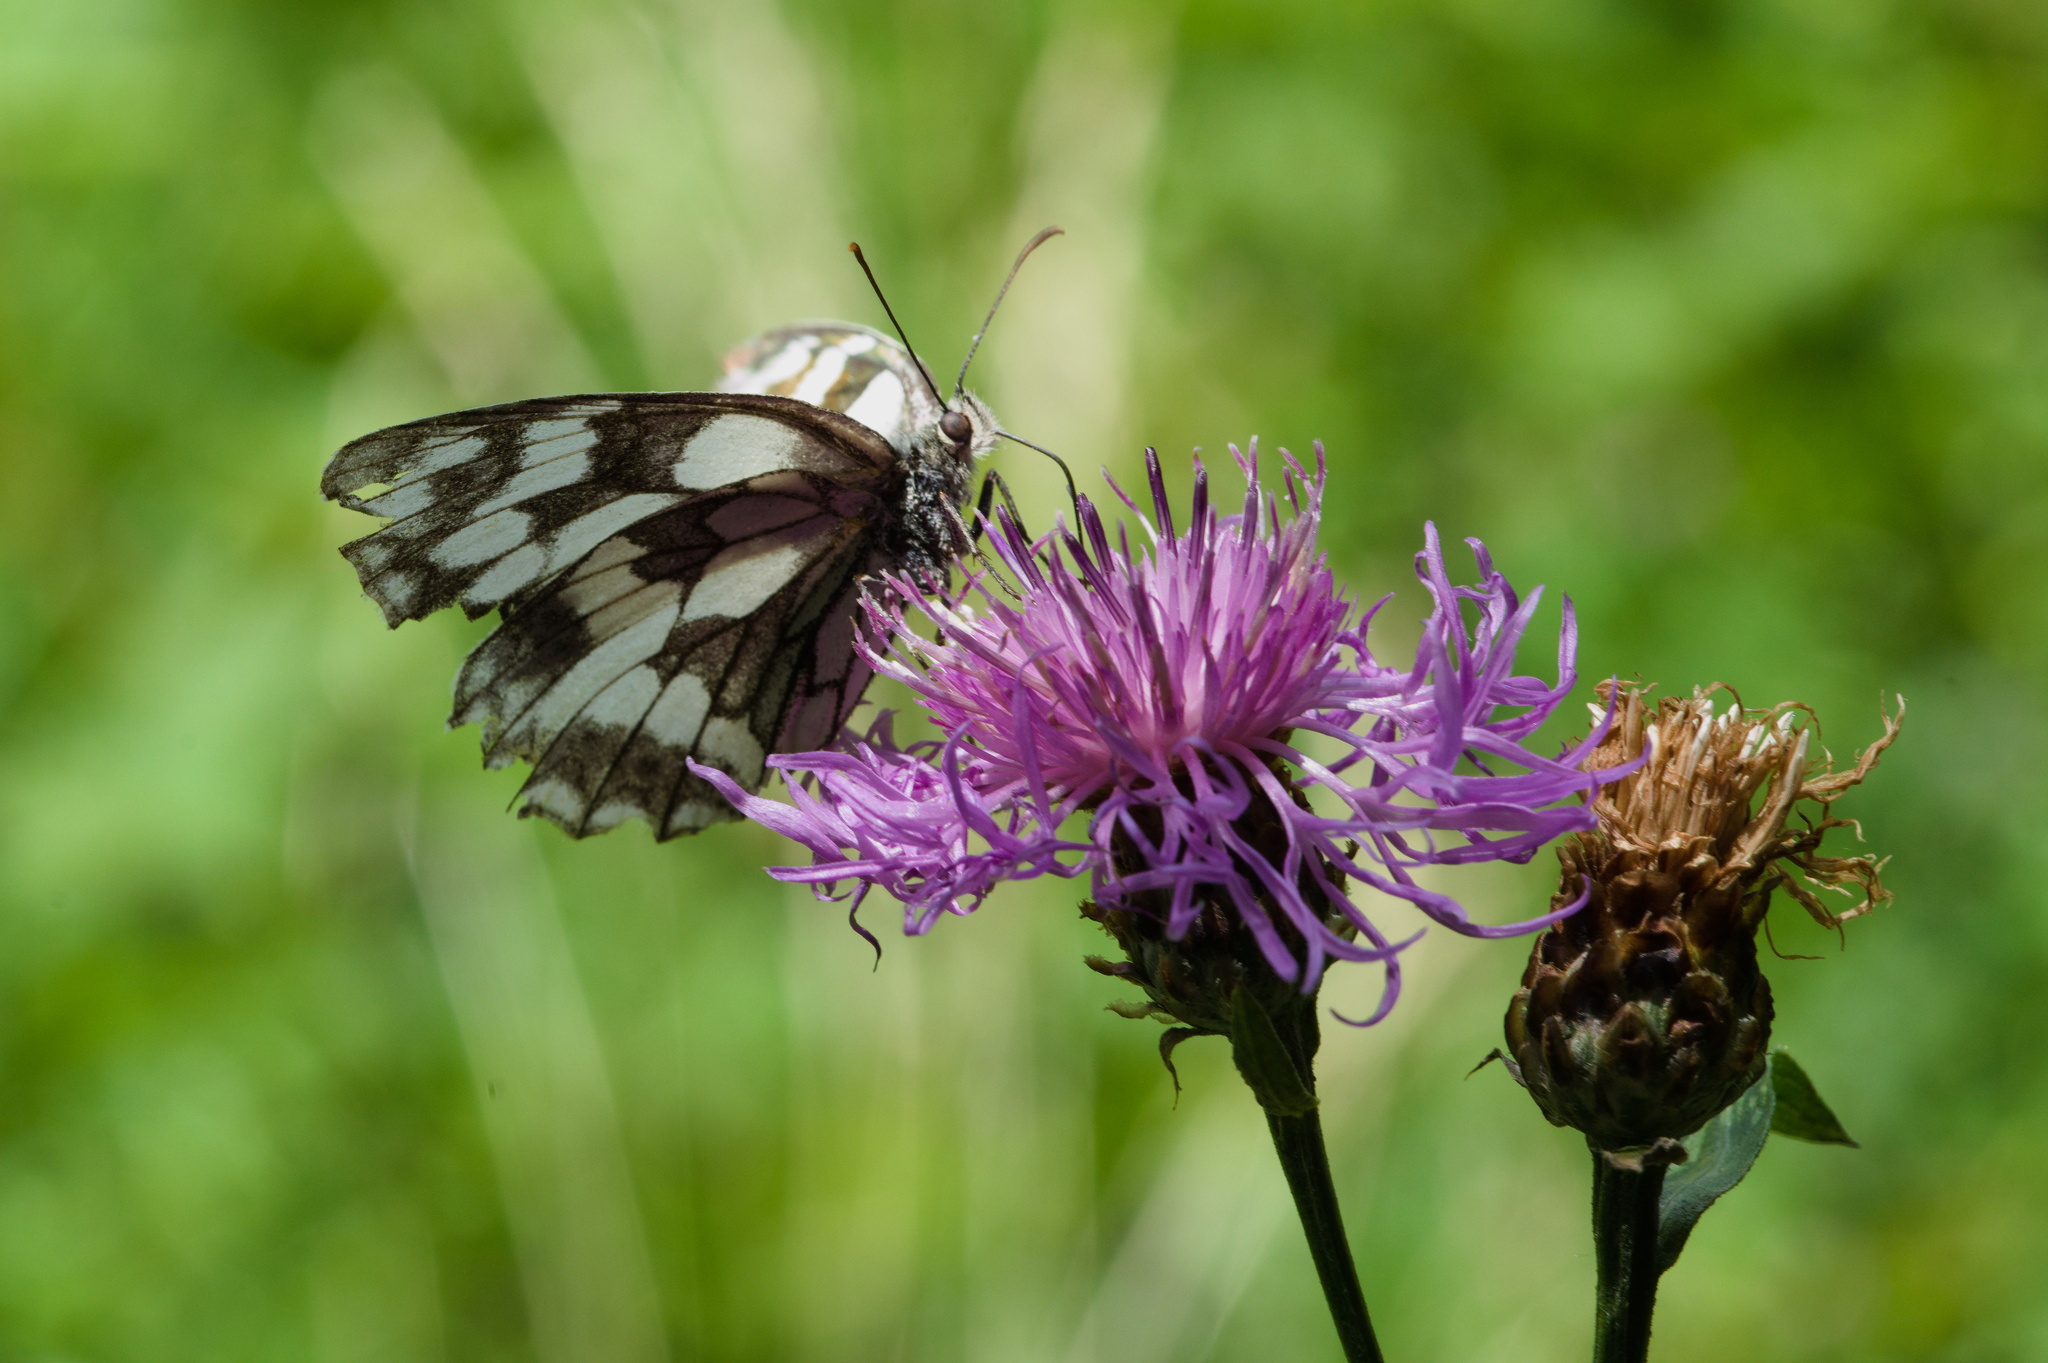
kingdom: Animalia
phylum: Arthropoda
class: Insecta
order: Lepidoptera
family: Nymphalidae
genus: Melanargia
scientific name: Melanargia galathea
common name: Marbled white
